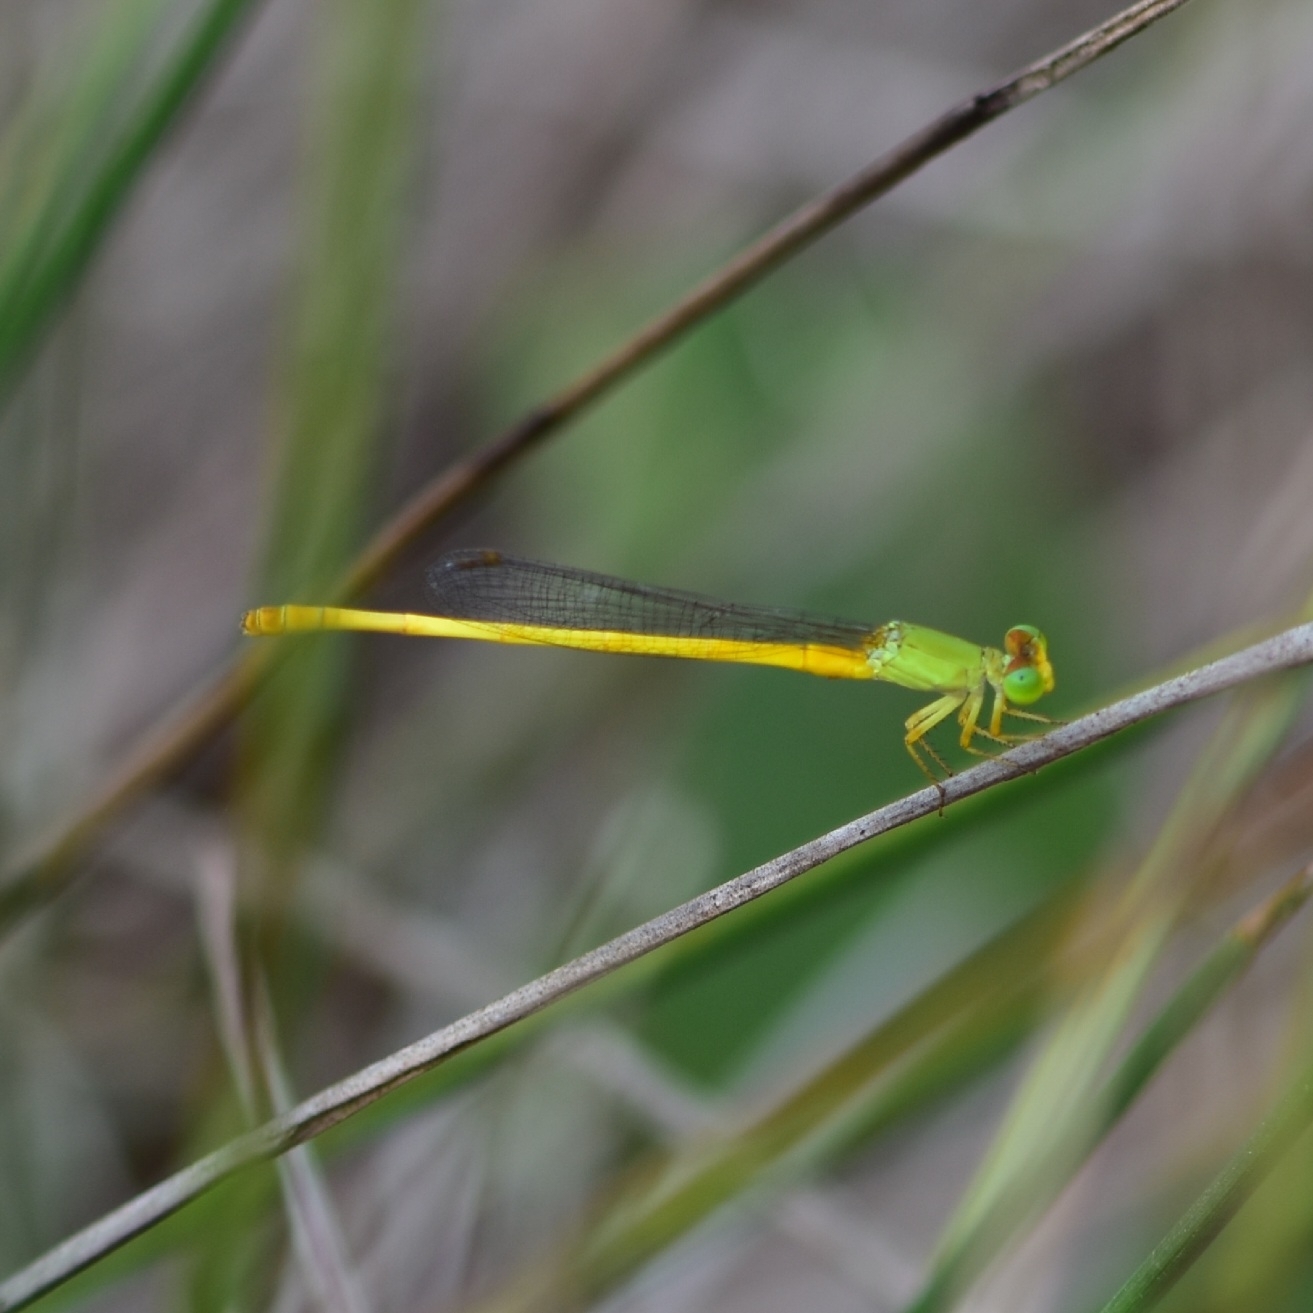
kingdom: Animalia
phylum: Arthropoda
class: Insecta
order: Odonata
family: Coenagrionidae
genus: Ceriagrion
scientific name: Ceriagrion coromandelianum
